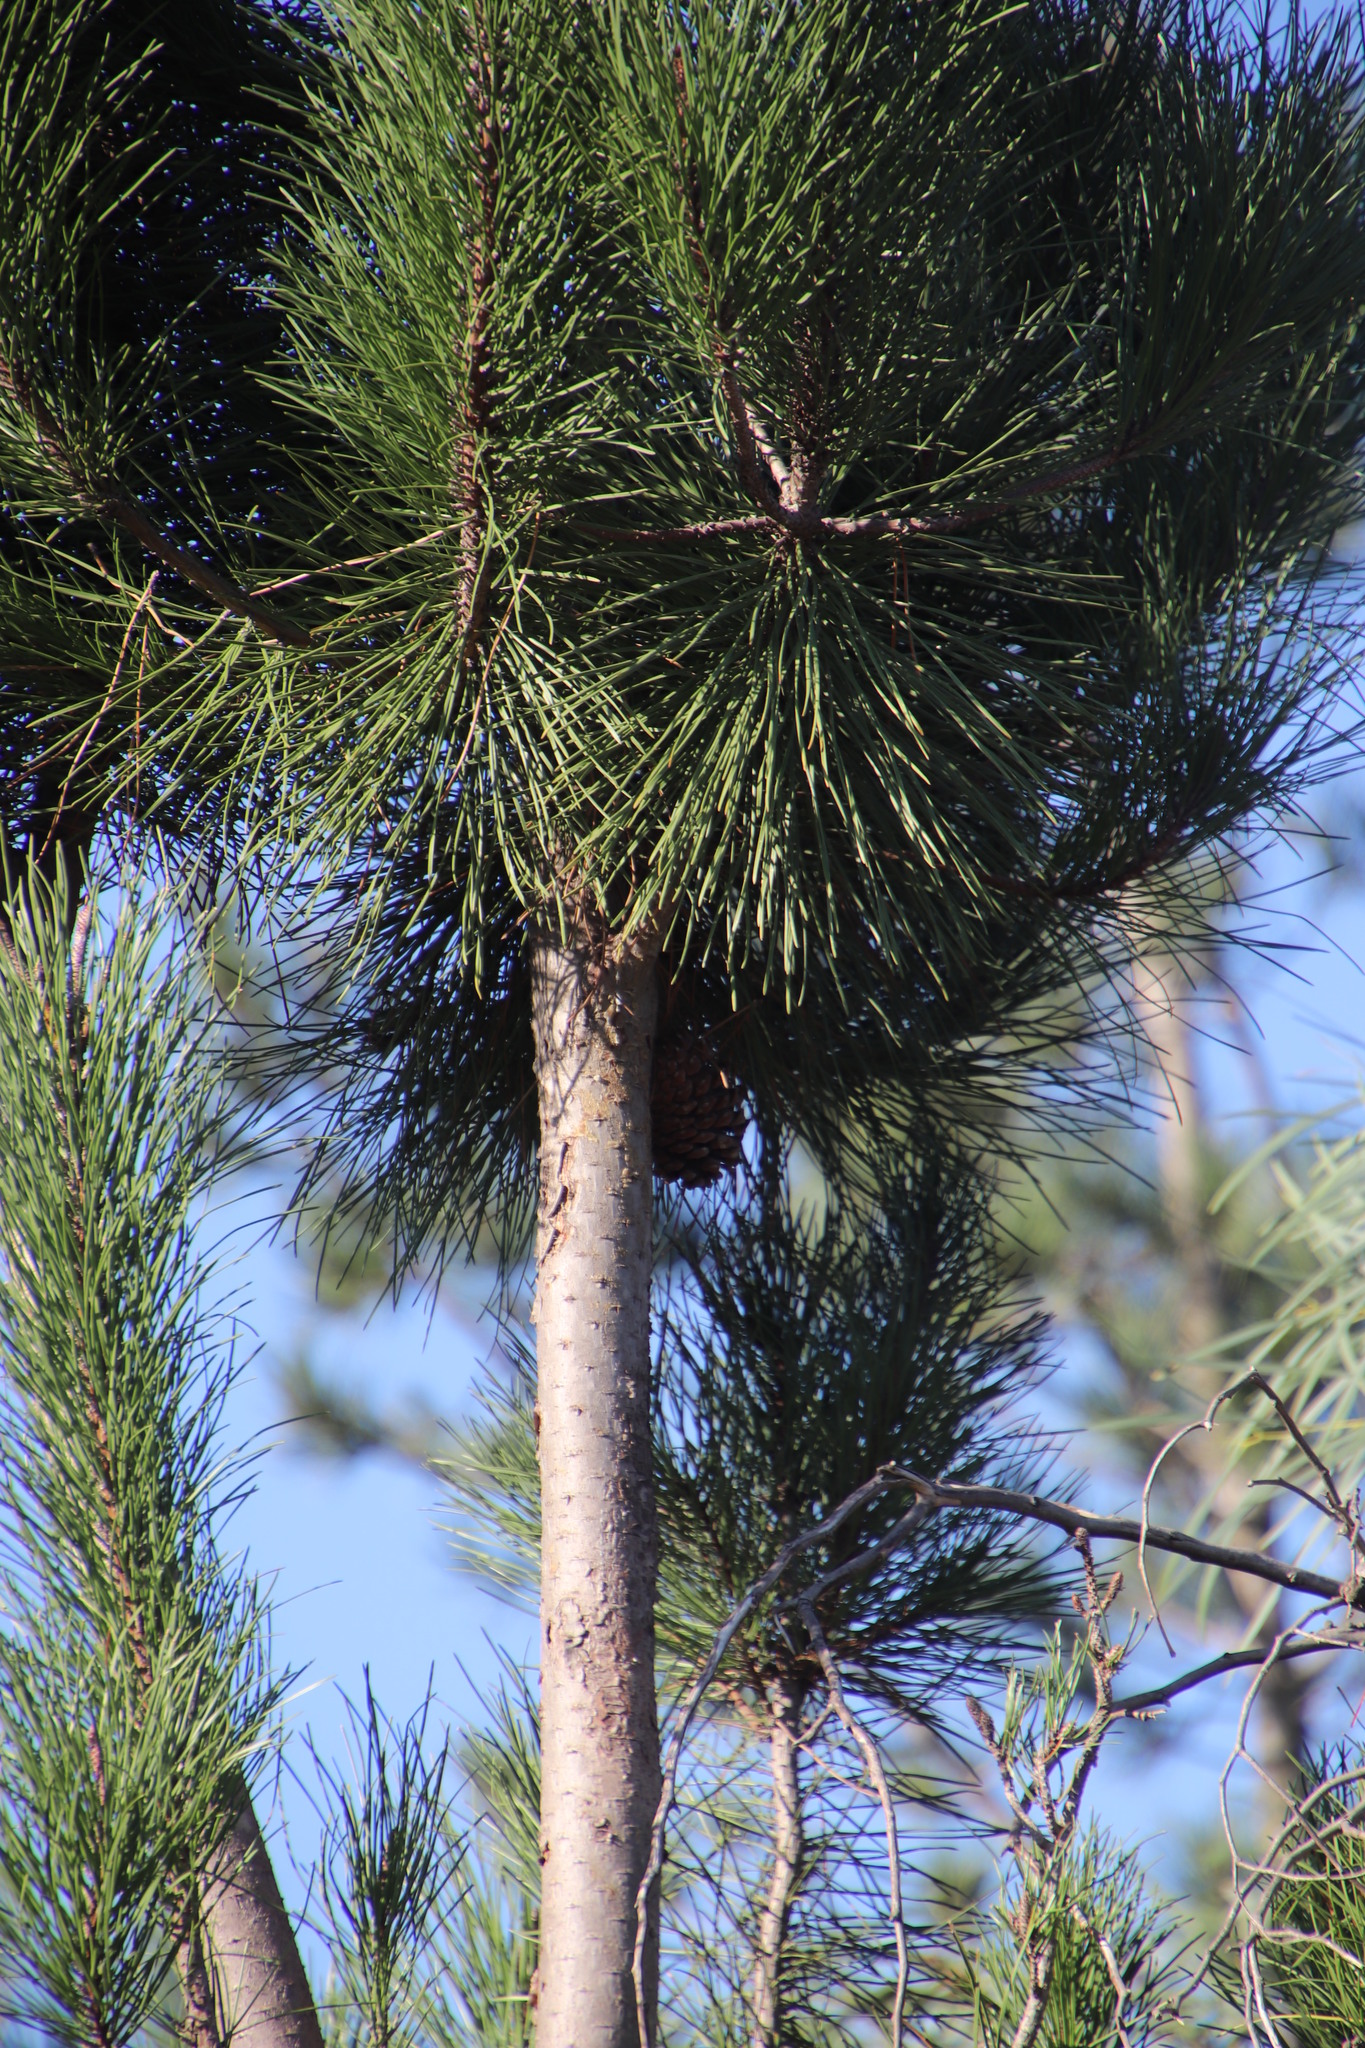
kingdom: Plantae
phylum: Tracheophyta
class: Pinopsida
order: Pinales
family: Pinaceae
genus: Pinus
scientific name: Pinus pinaster
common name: Maritime pine
